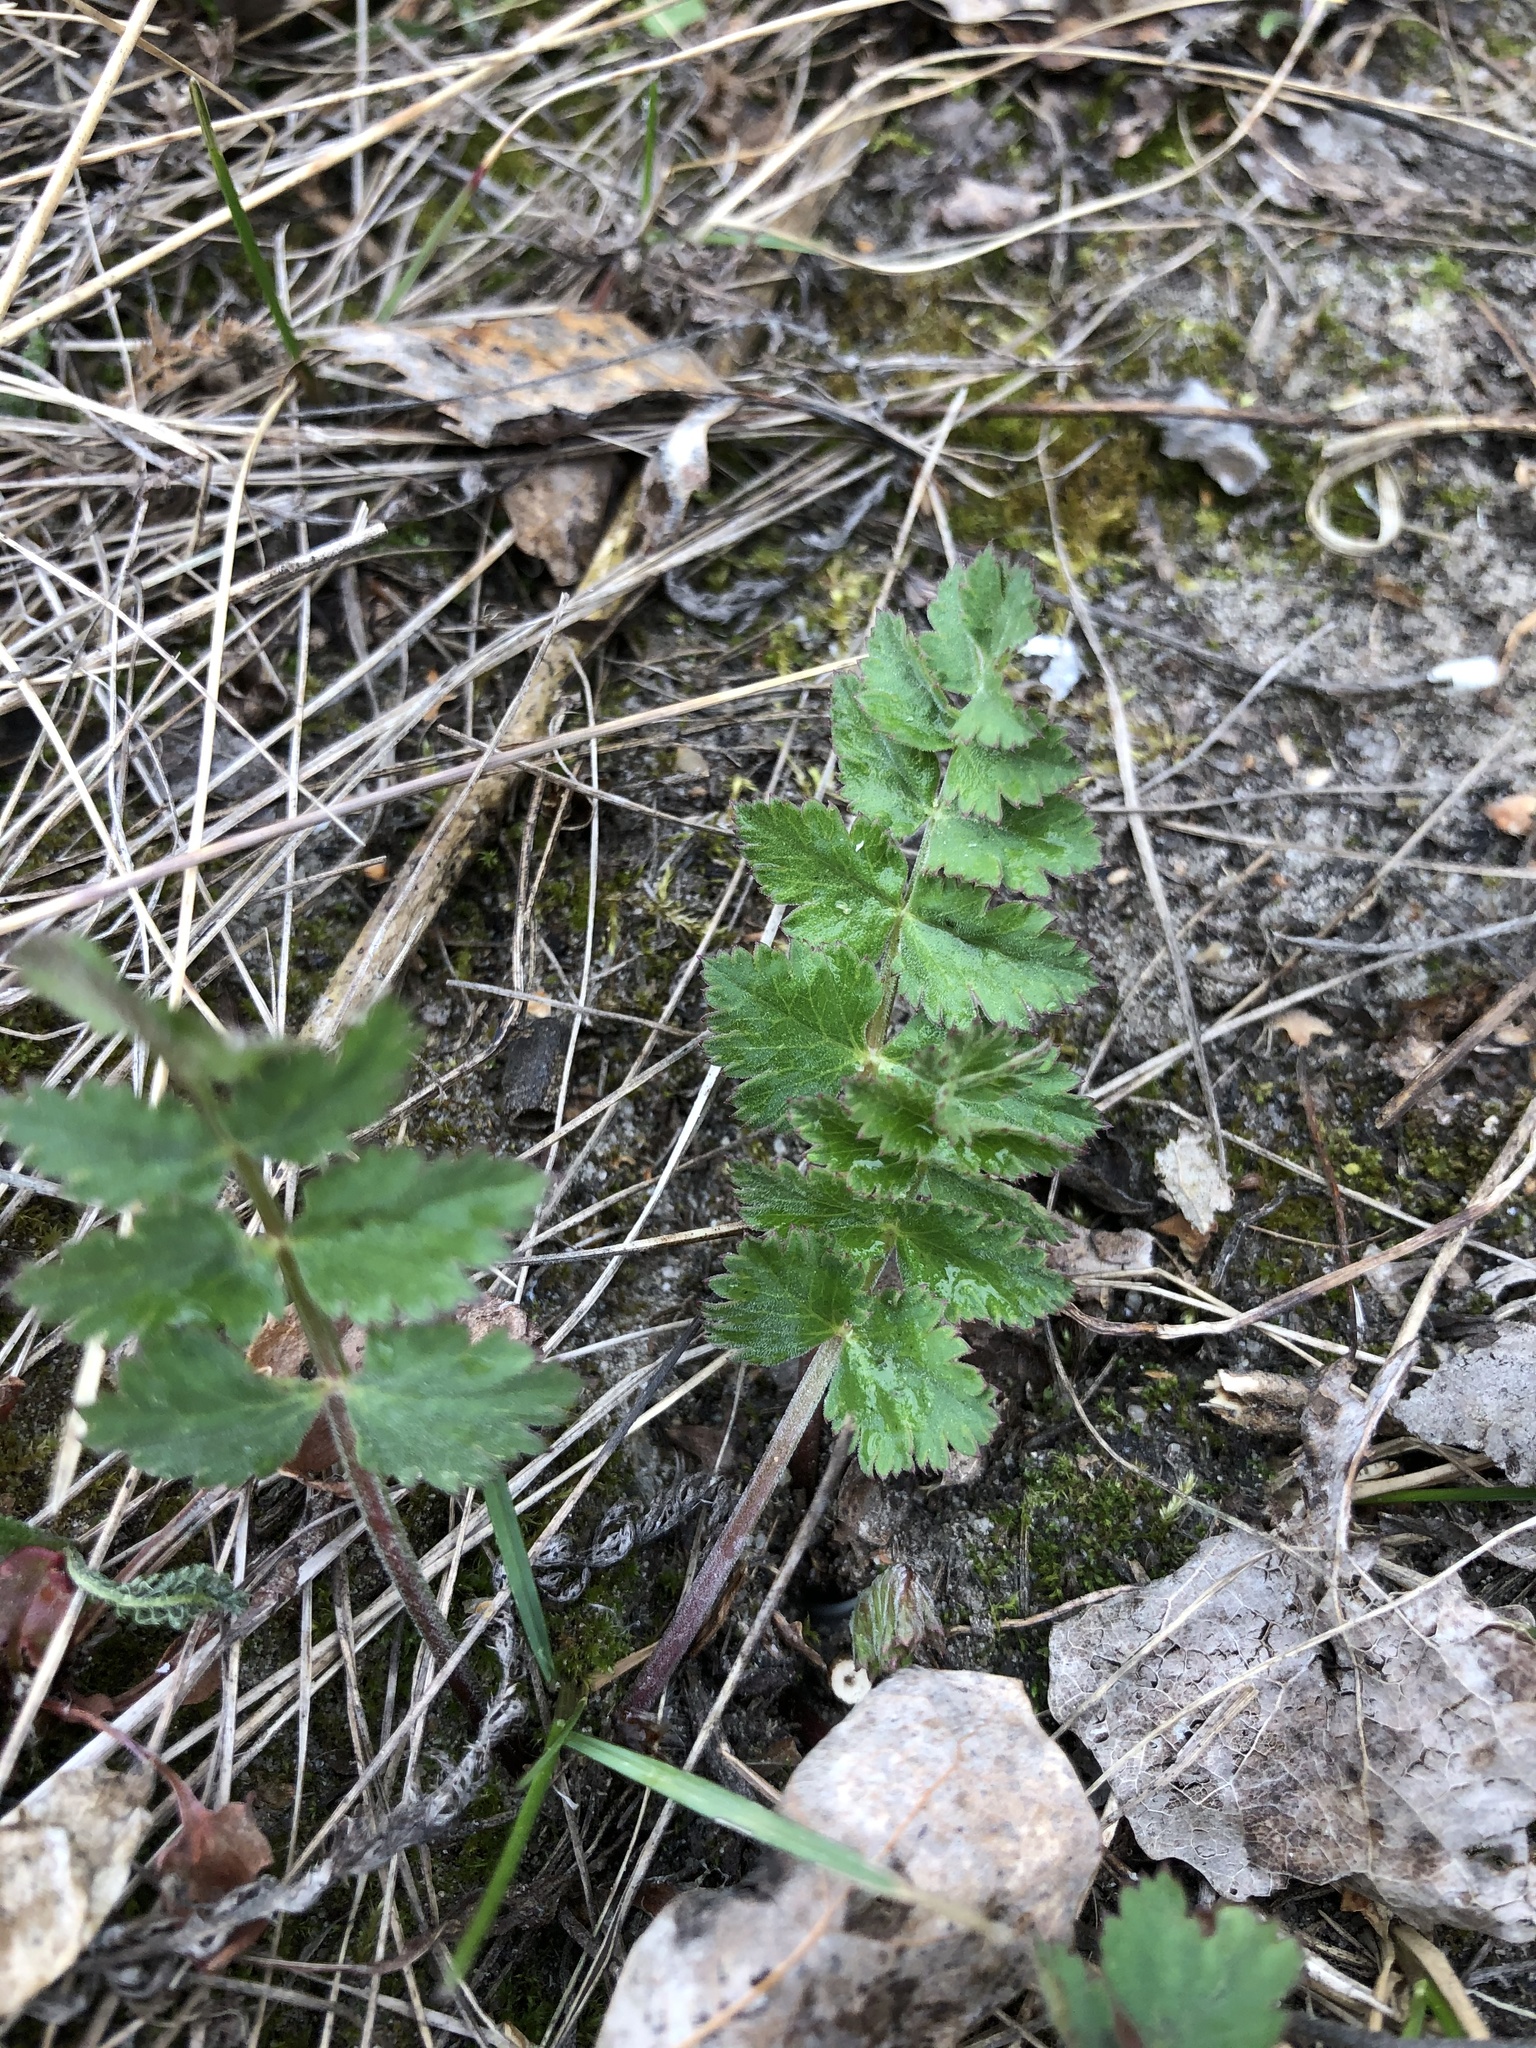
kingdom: Plantae
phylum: Tracheophyta
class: Magnoliopsida
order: Apiales
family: Apiaceae
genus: Pimpinella
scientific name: Pimpinella saxifraga
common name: Burnet-saxifrage
